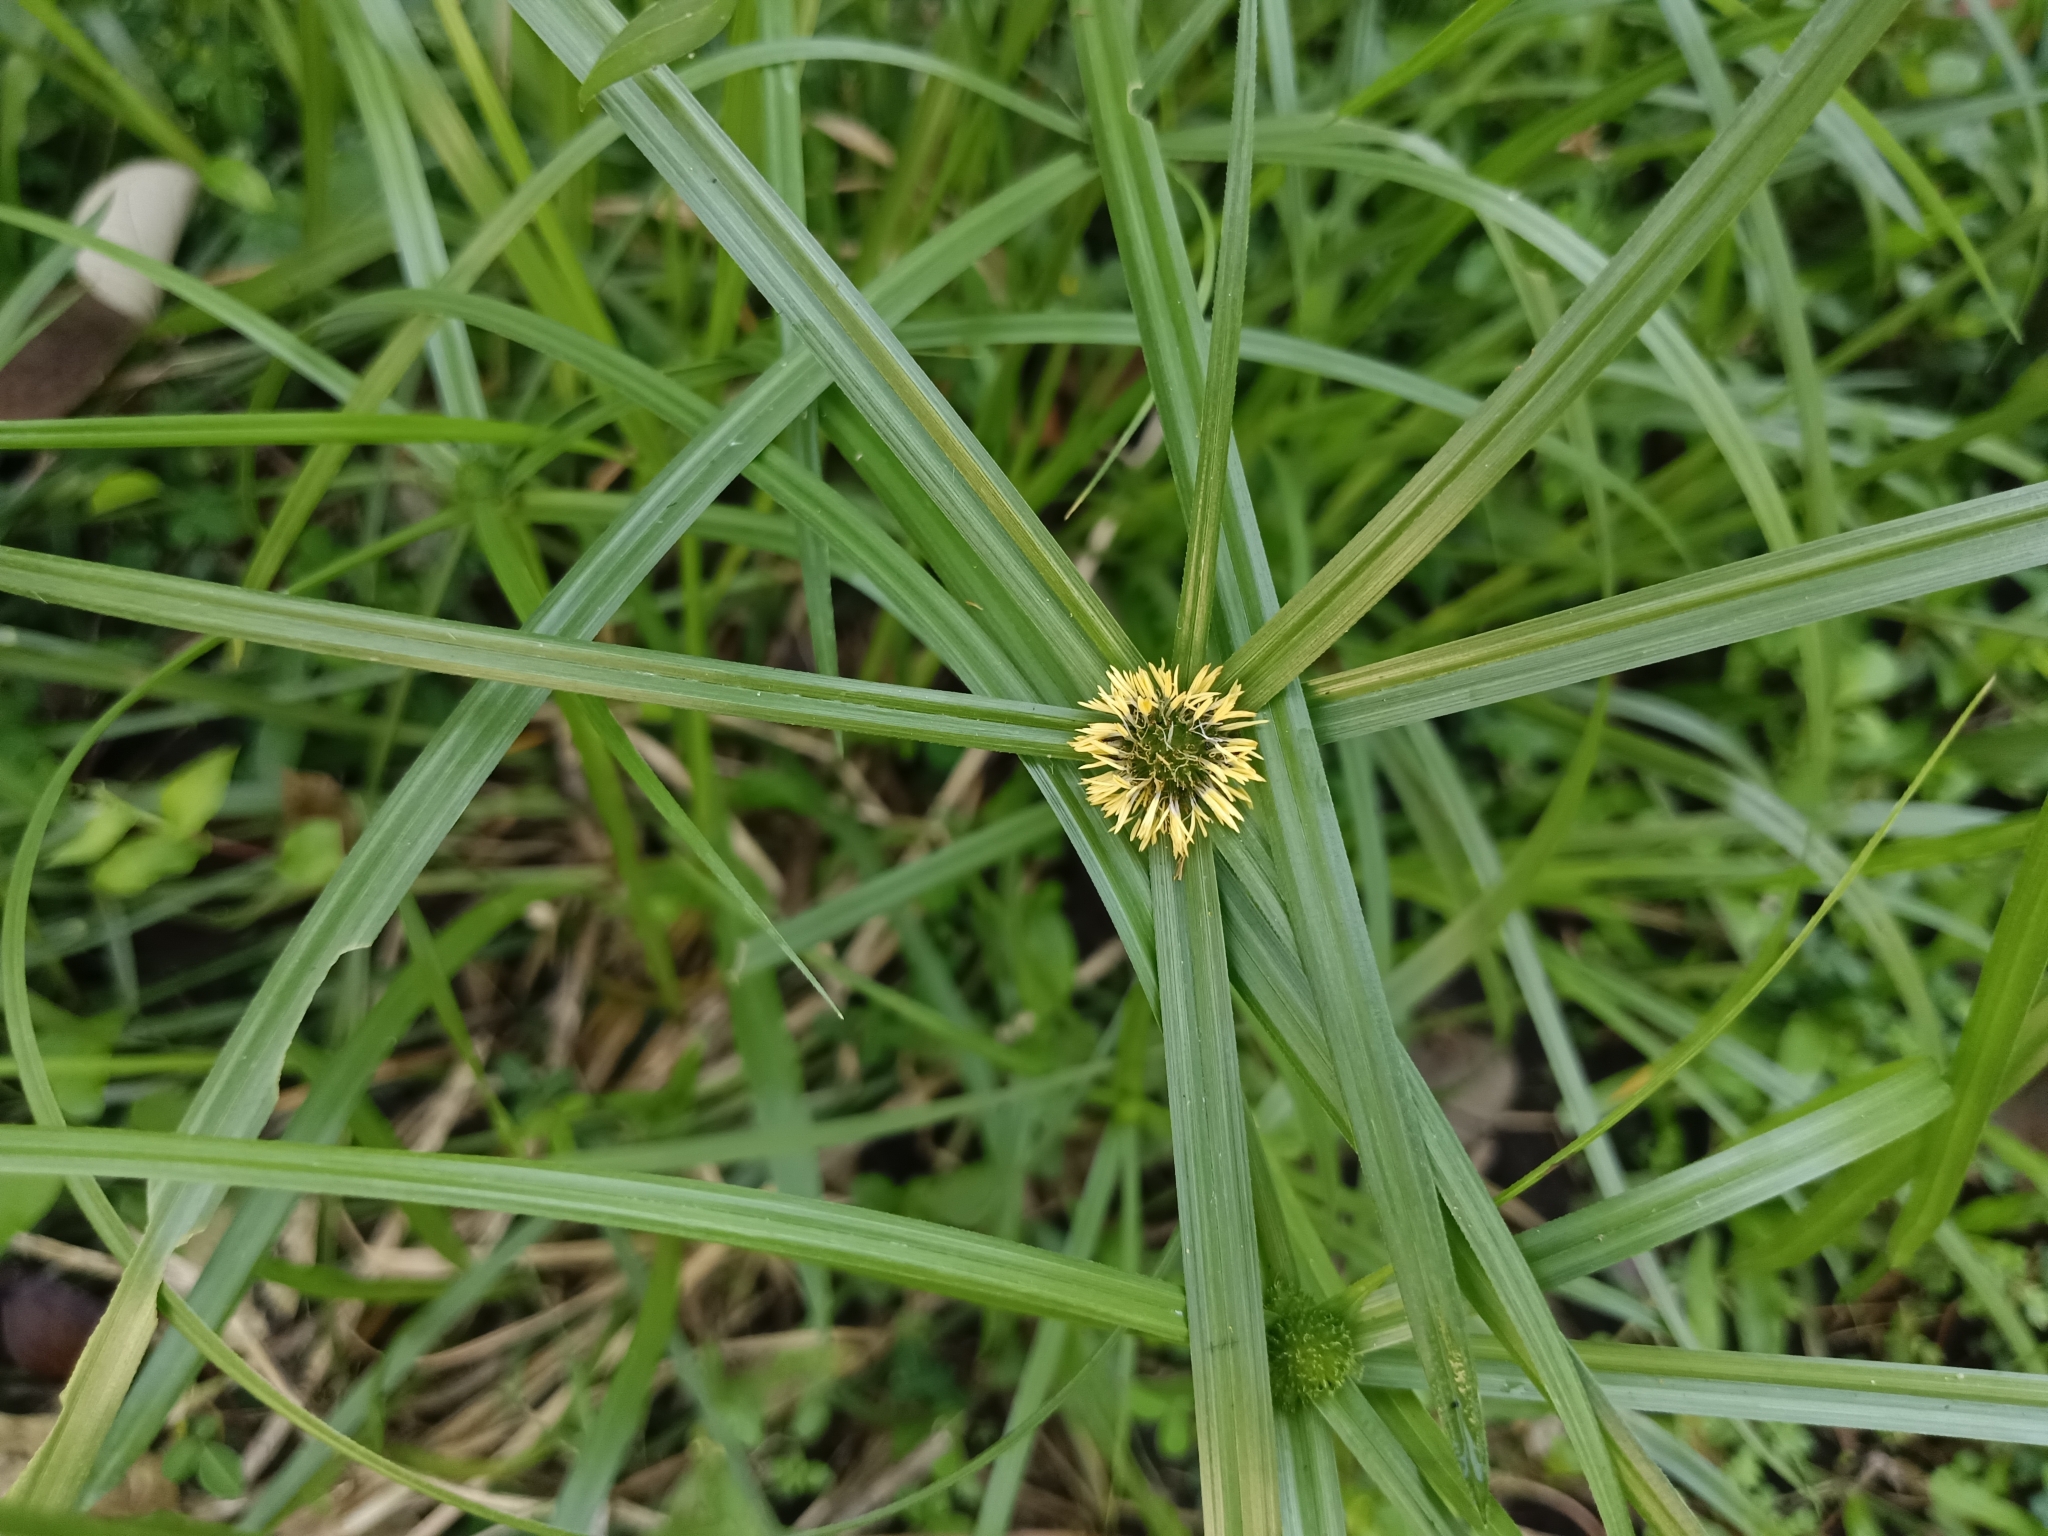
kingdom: Plantae
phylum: Tracheophyta
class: Liliopsida
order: Poales
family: Cyperaceae
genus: Cyperus
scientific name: Cyperus aromaticus
